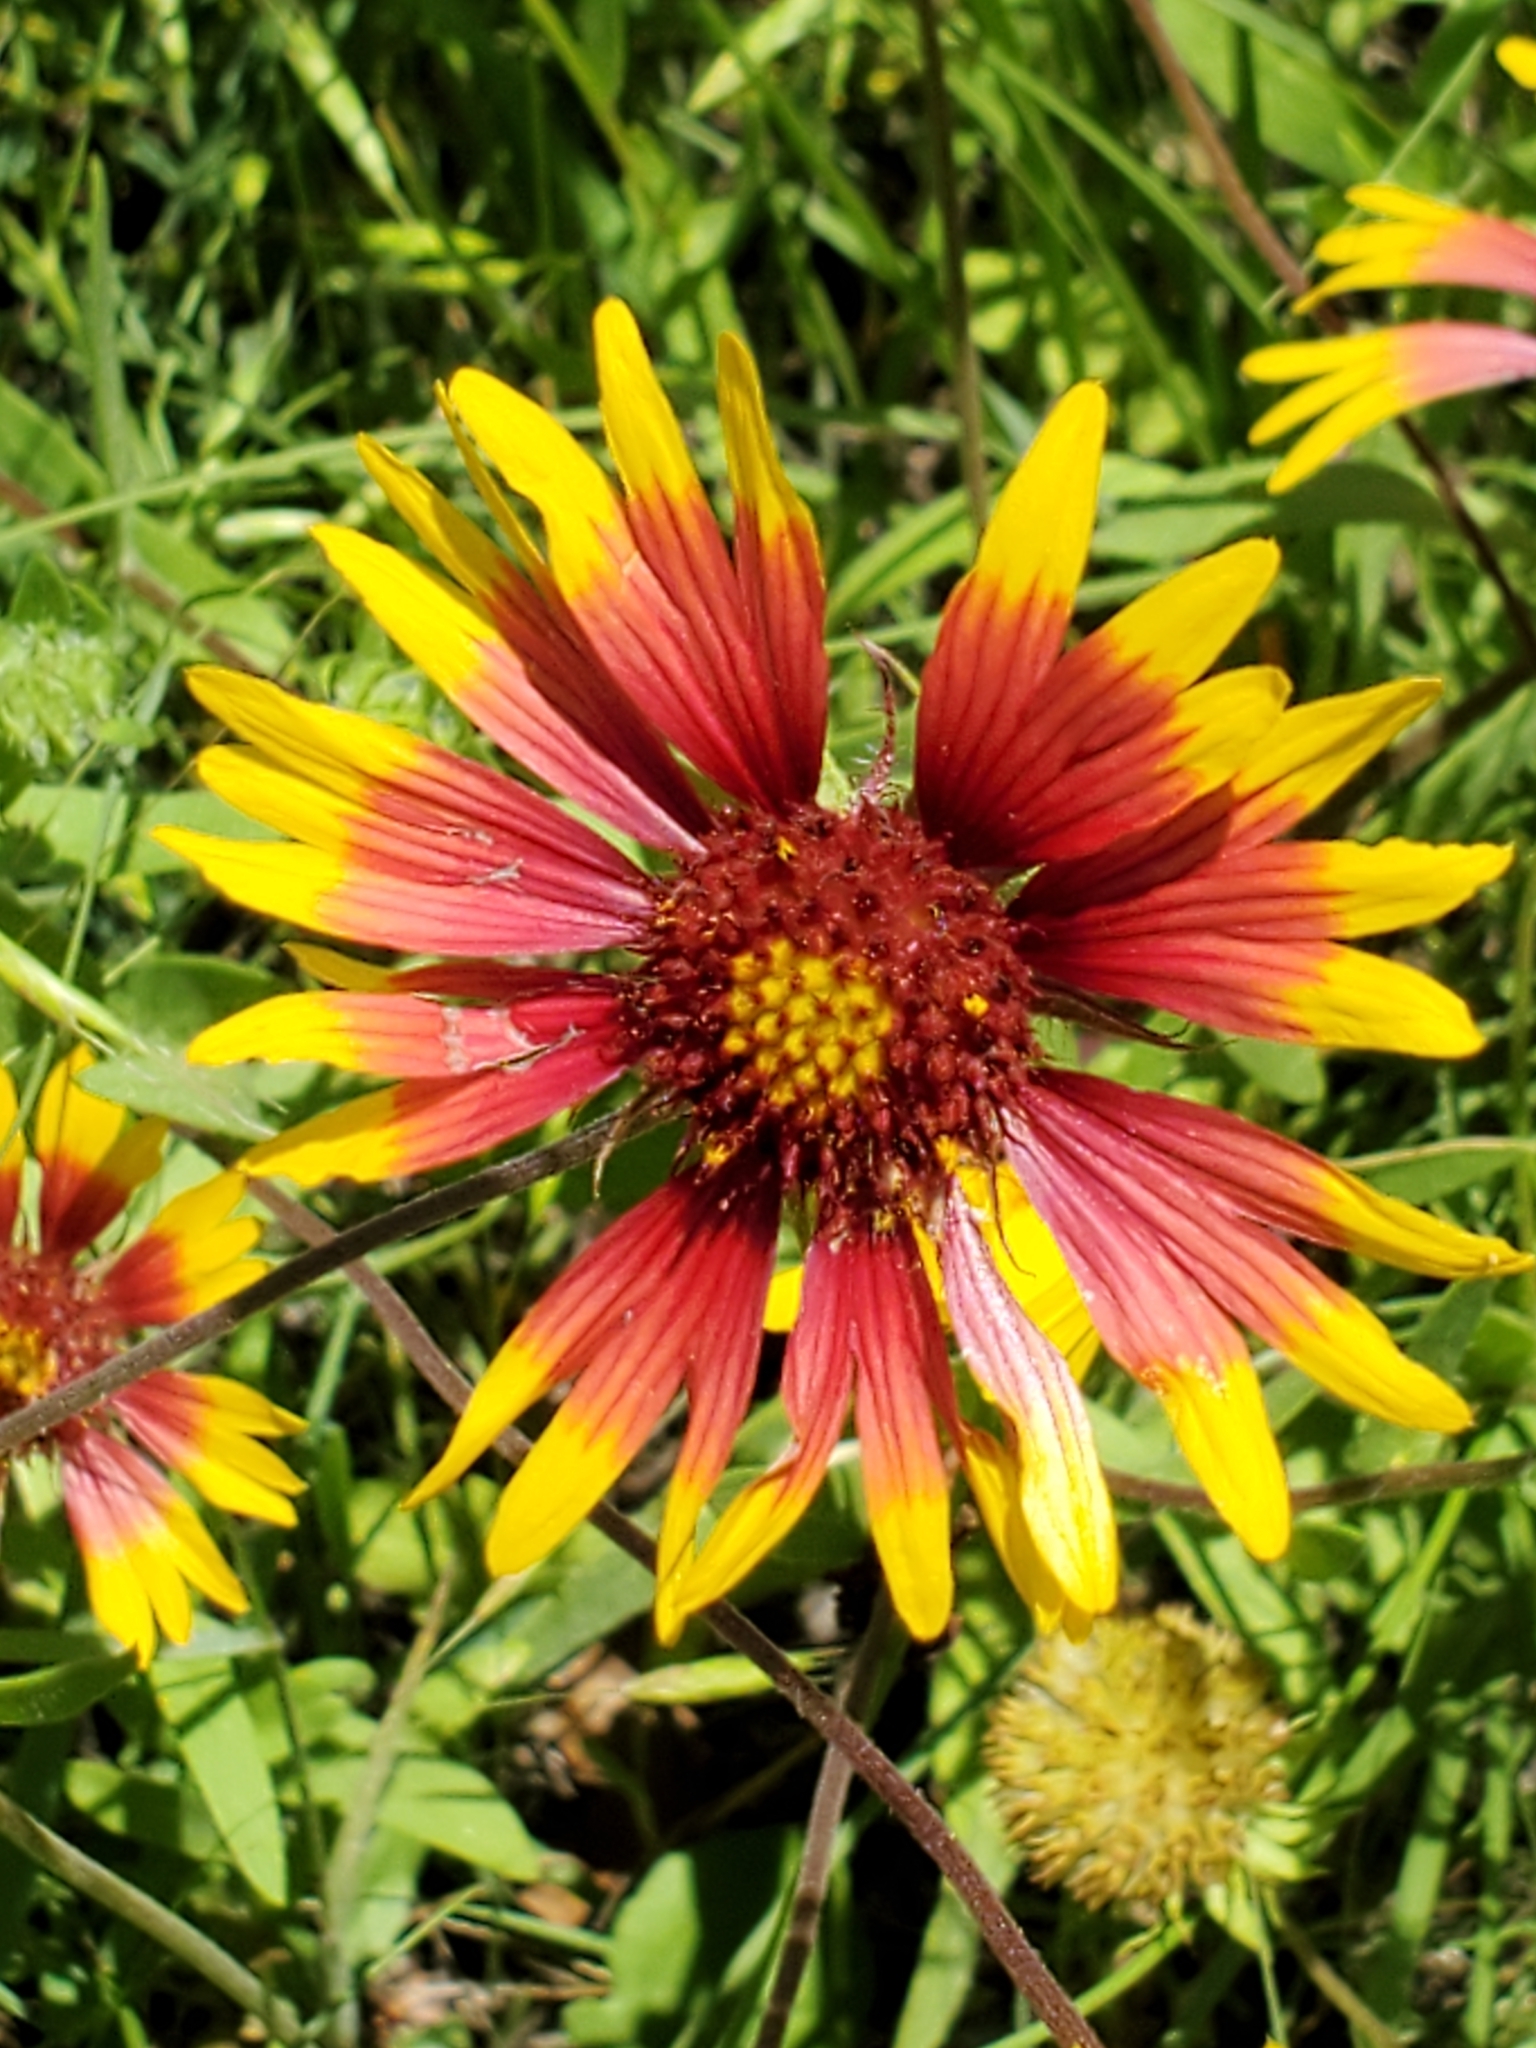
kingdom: Plantae
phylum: Tracheophyta
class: Magnoliopsida
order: Asterales
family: Asteraceae
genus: Gaillardia
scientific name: Gaillardia pulchella
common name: Firewheel
